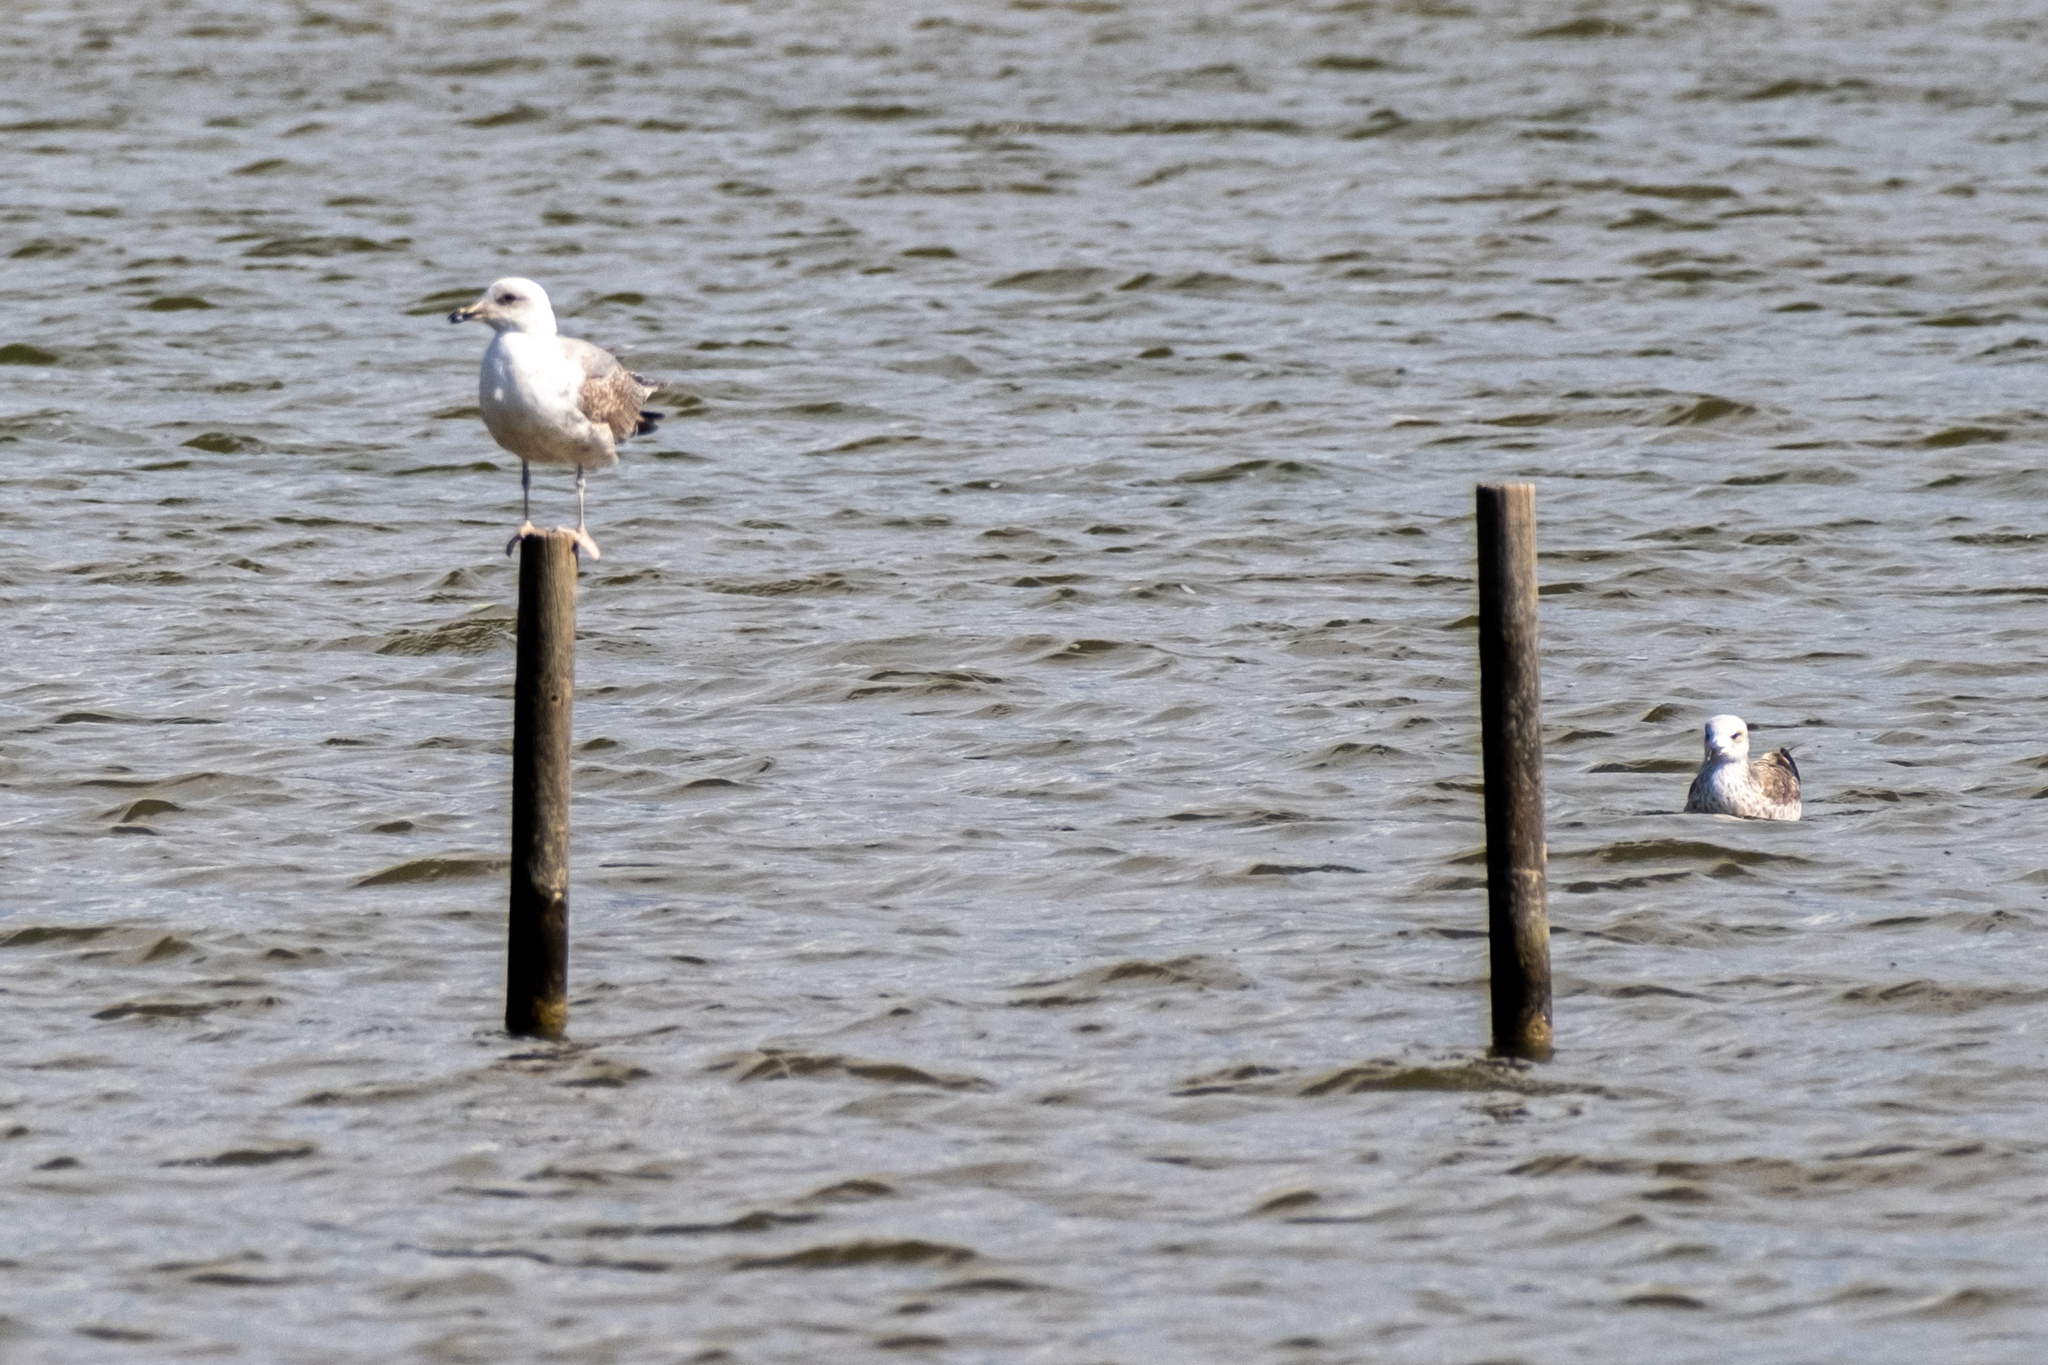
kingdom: Animalia
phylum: Chordata
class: Aves
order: Charadriiformes
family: Laridae
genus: Larus
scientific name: Larus michahellis
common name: Yellow-legged gull
